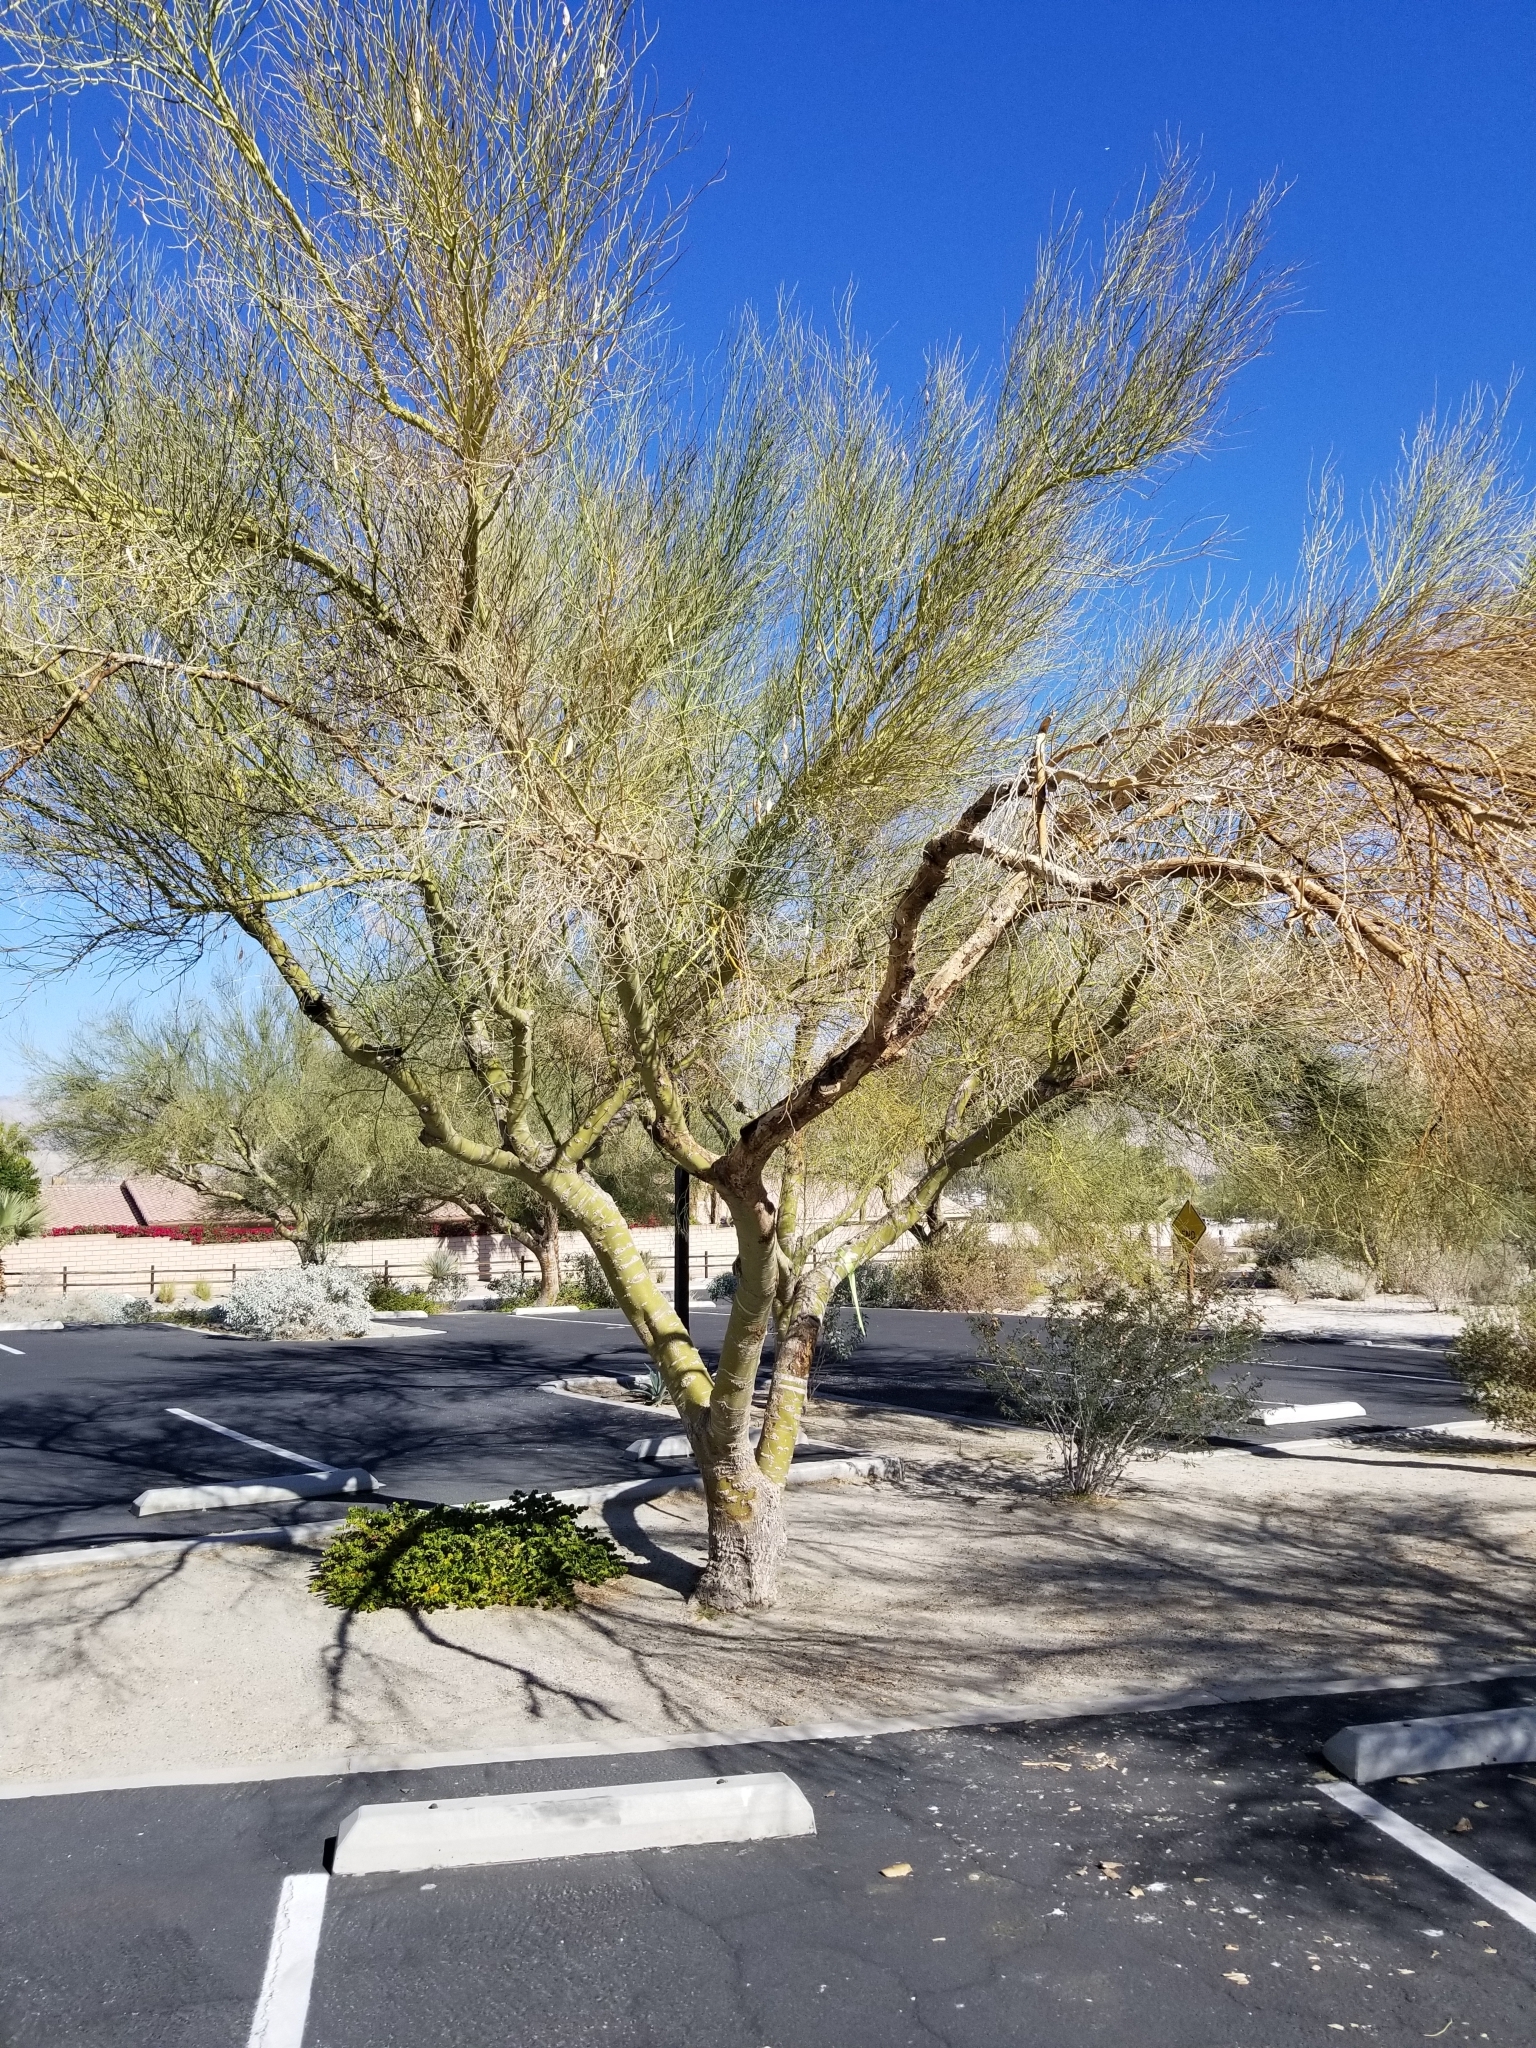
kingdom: Animalia
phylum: Chordata
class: Aves
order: Piciformes
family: Picidae
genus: Dryobates
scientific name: Dryobates scalaris
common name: Ladder-backed woodpecker
